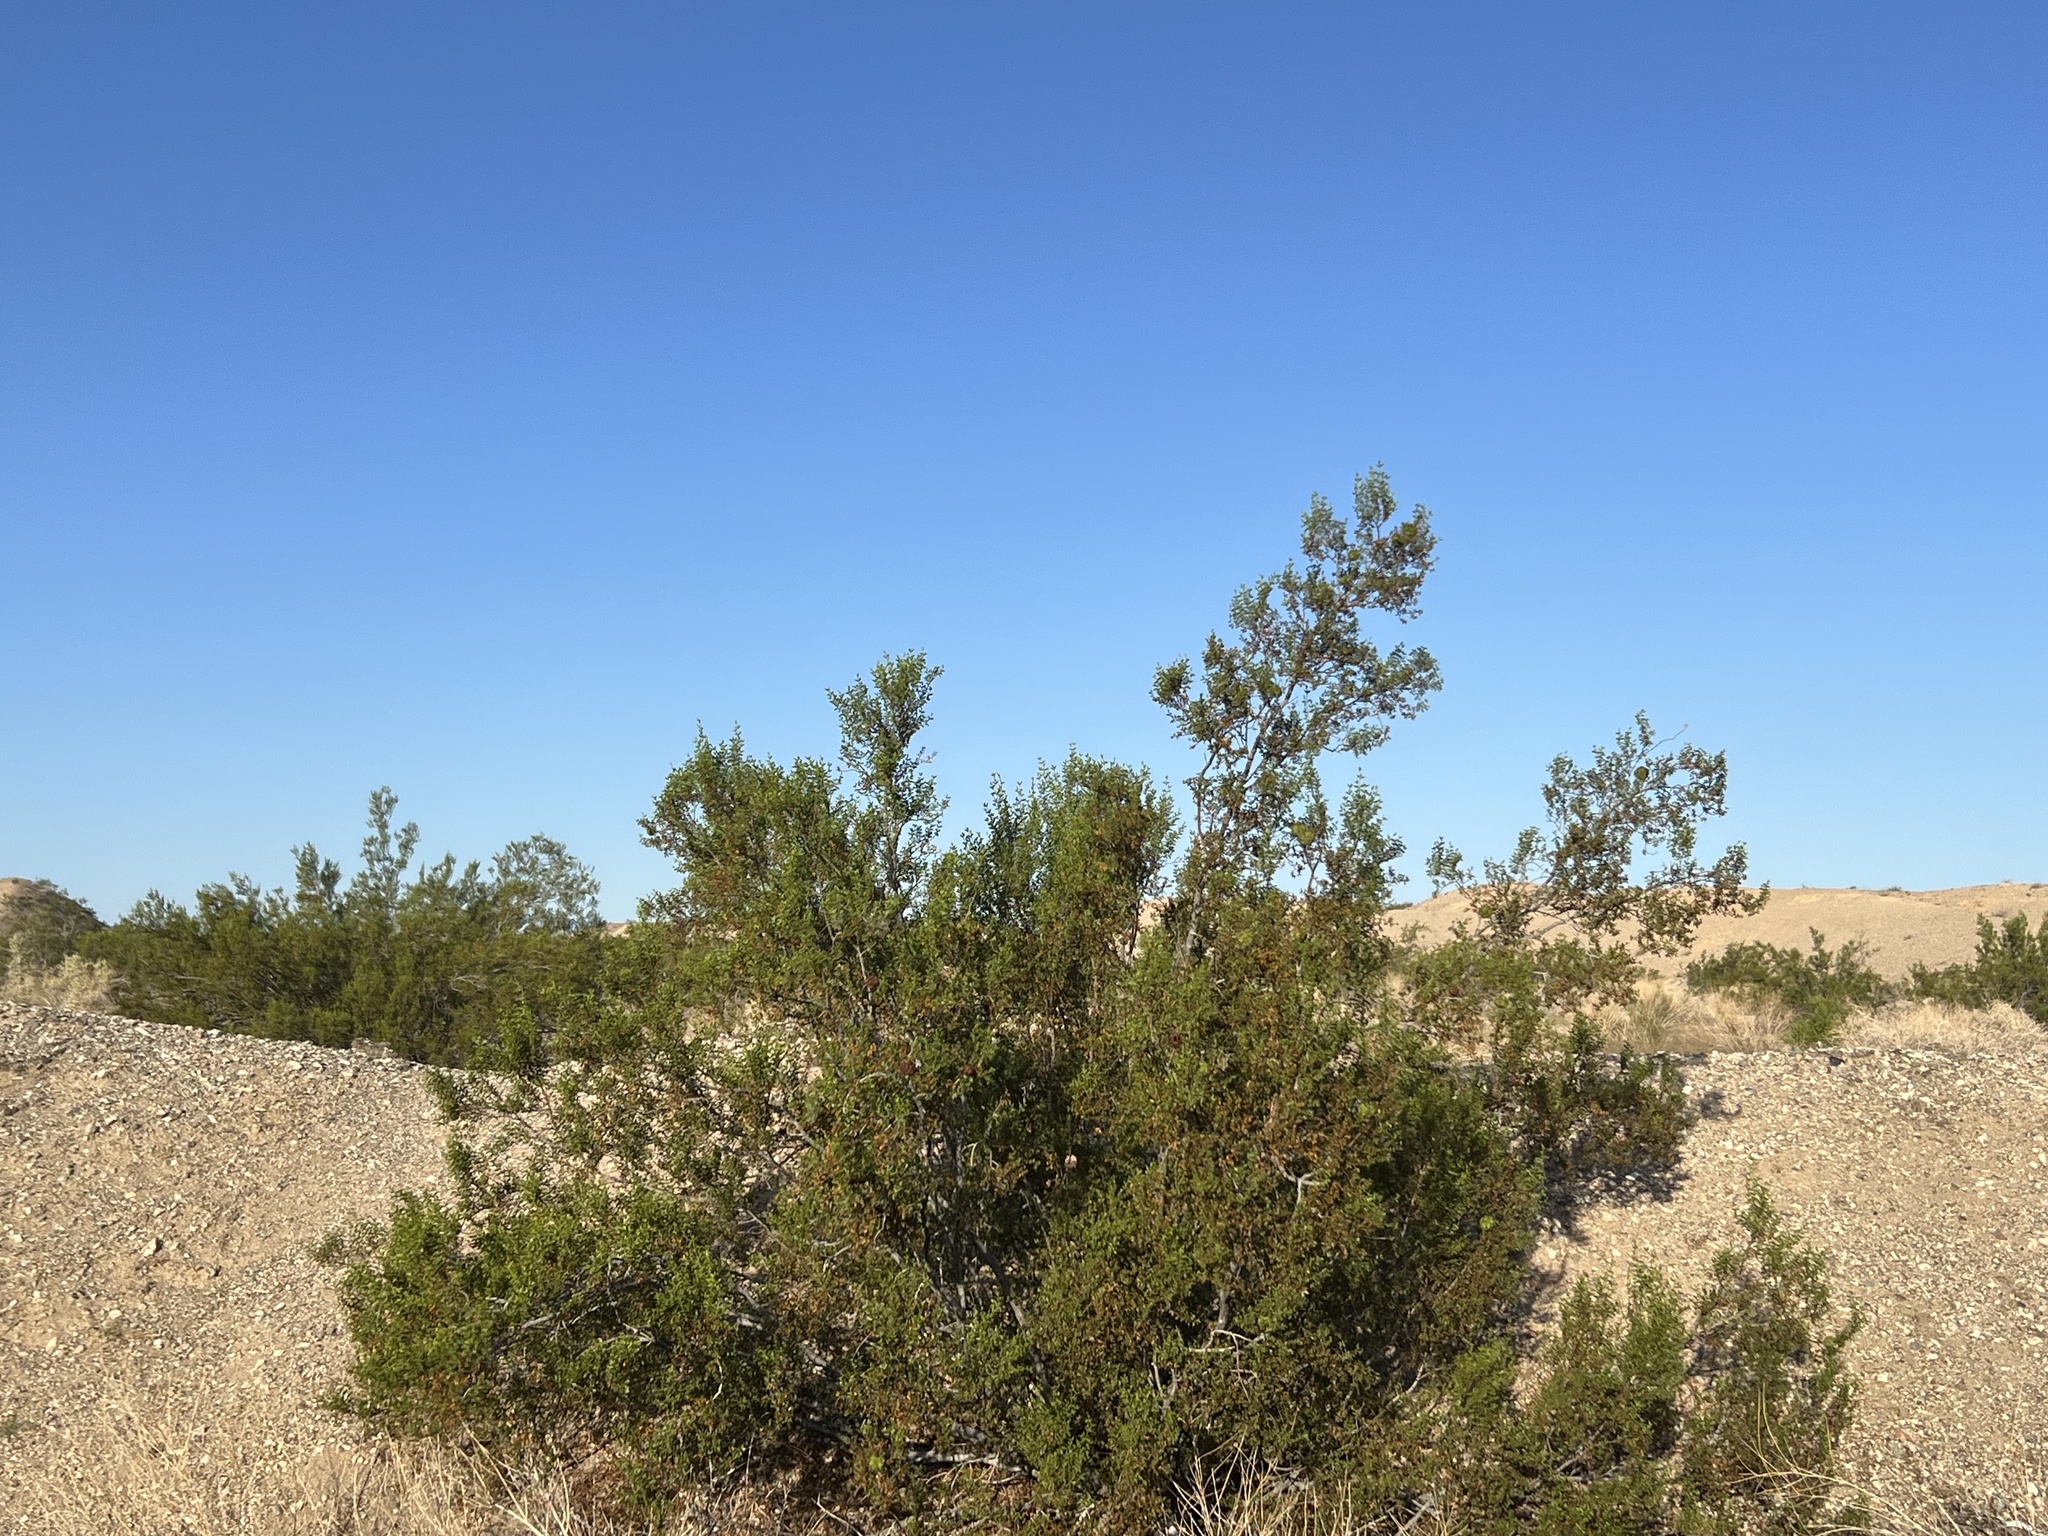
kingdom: Plantae
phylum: Tracheophyta
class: Magnoliopsida
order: Zygophyllales
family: Zygophyllaceae
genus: Larrea
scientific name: Larrea tridentata
